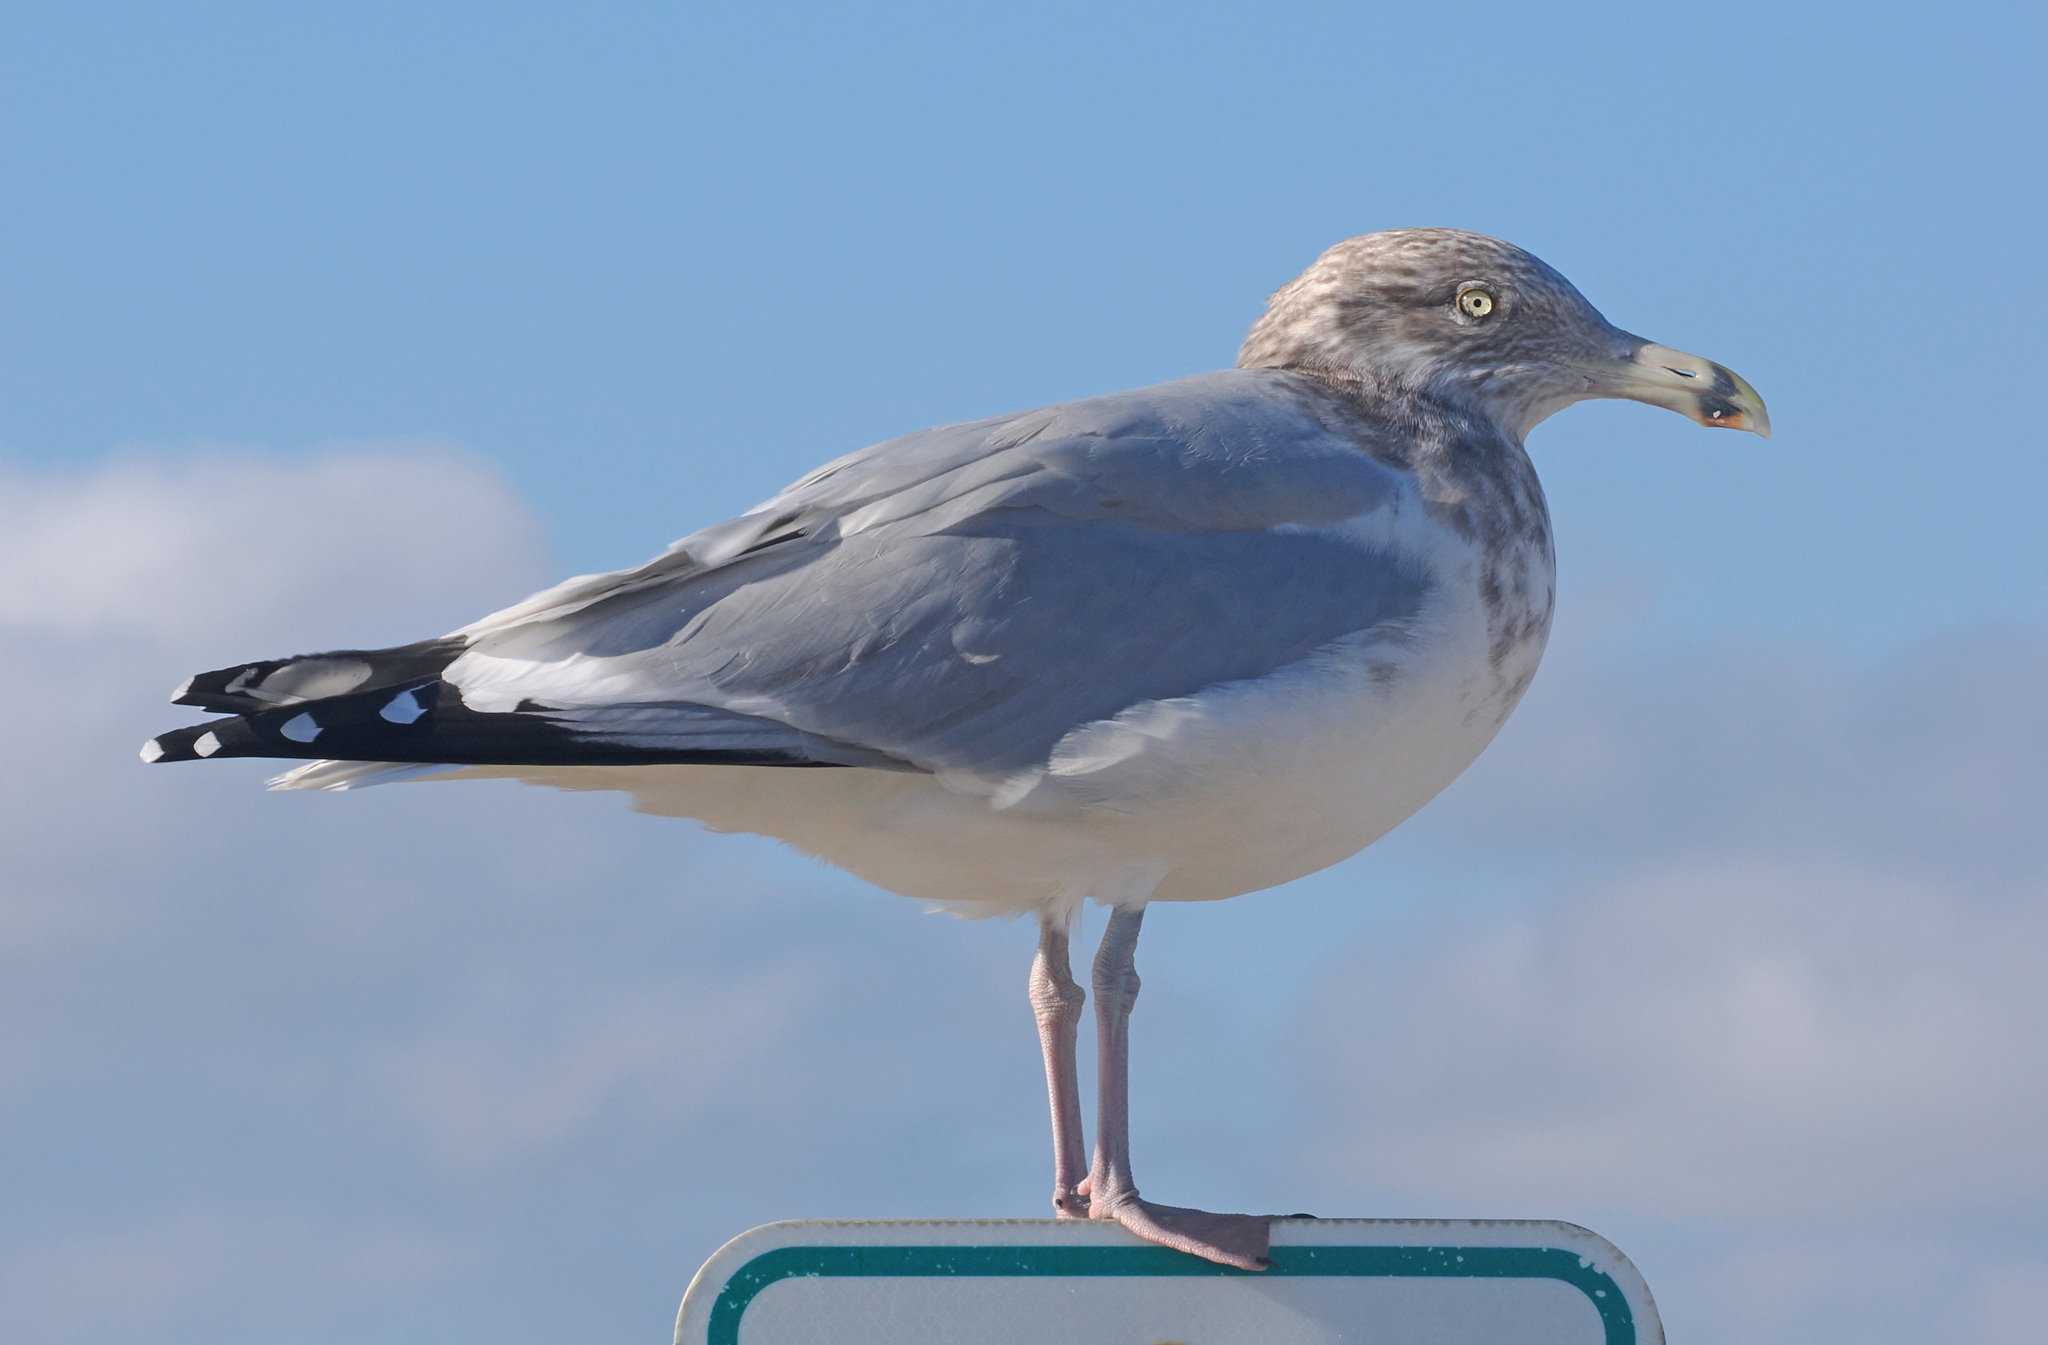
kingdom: Animalia
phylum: Chordata
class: Aves
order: Charadriiformes
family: Laridae
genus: Larus
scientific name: Larus argentatus
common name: Herring gull
